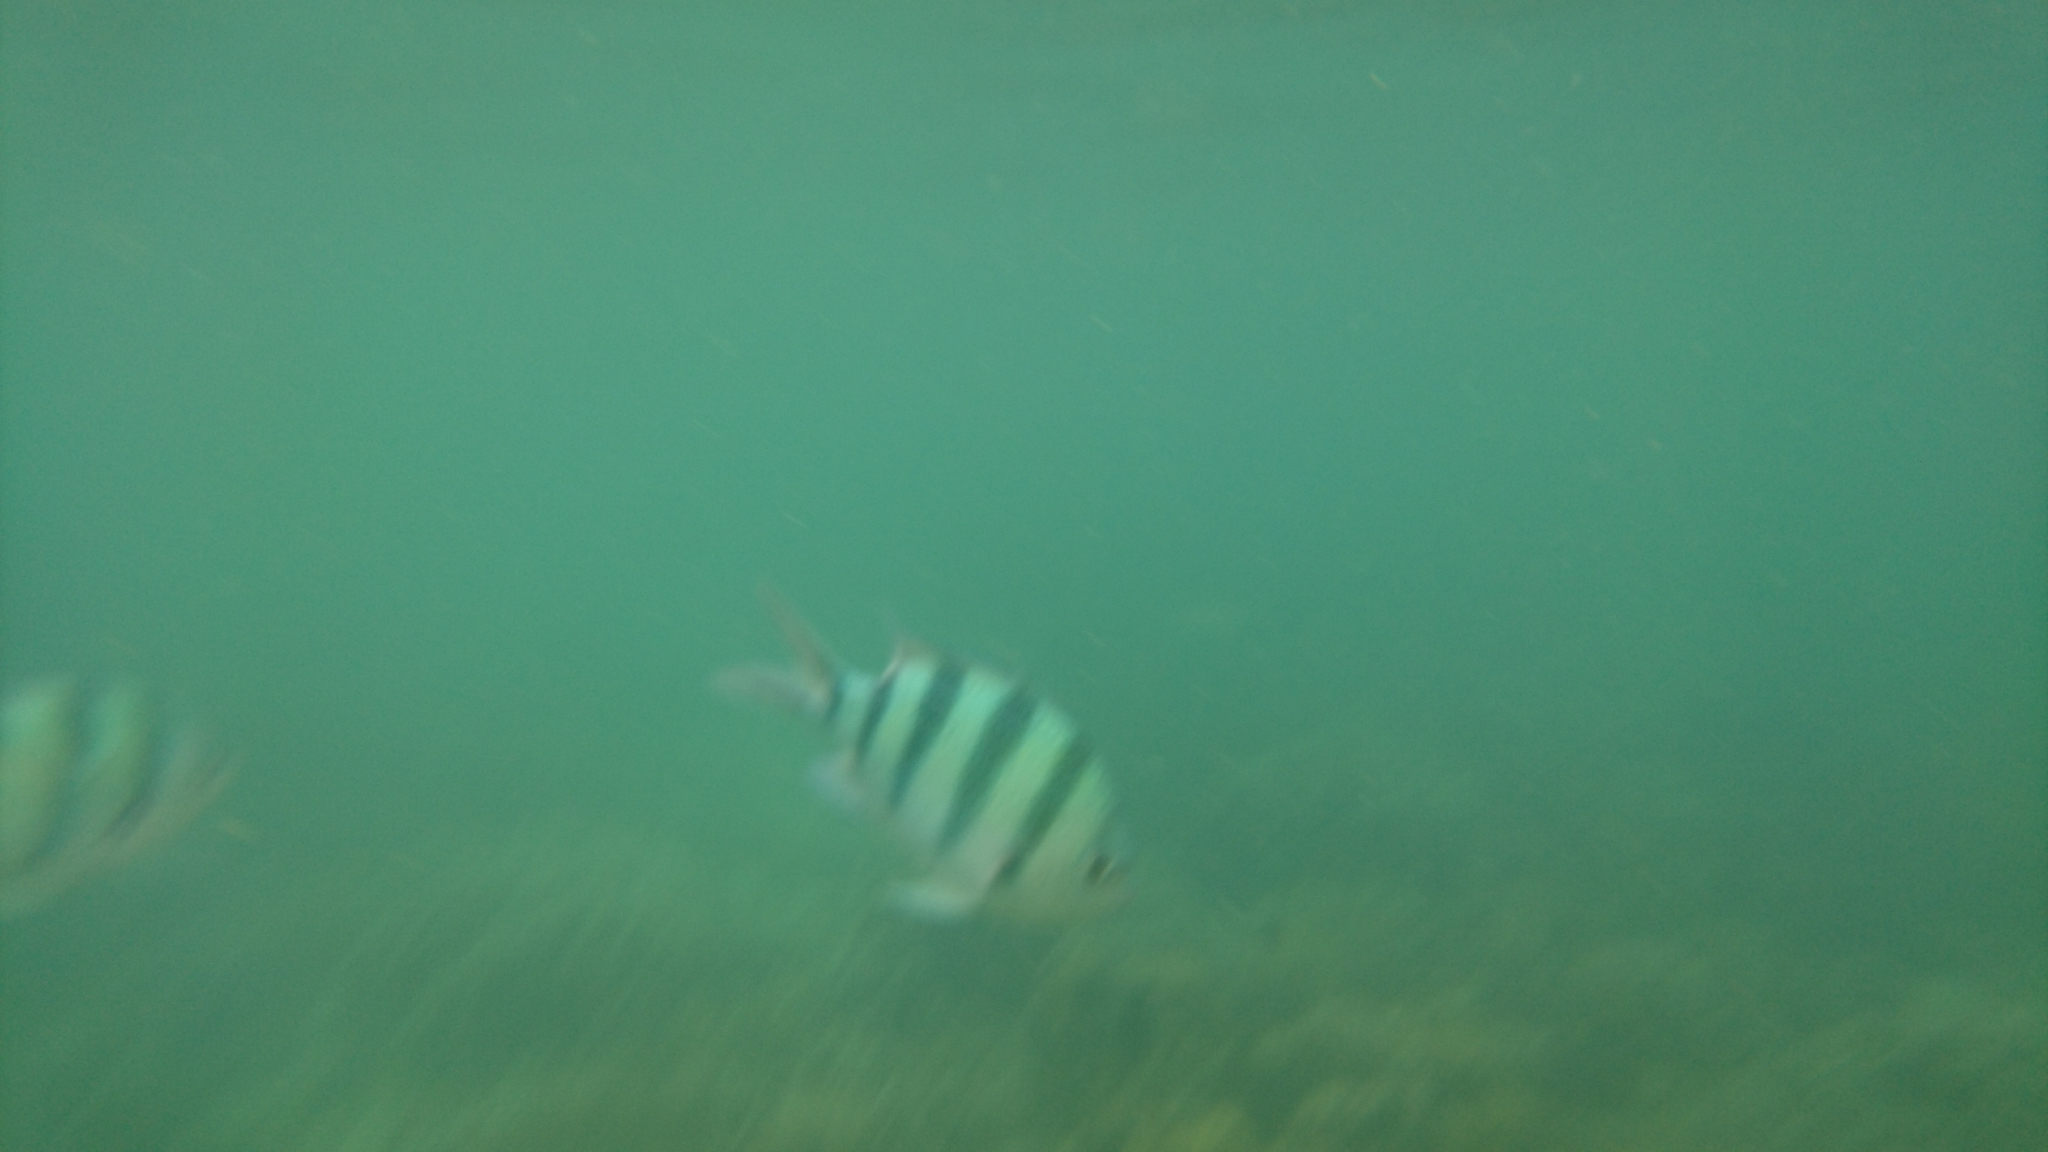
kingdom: Animalia
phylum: Chordata
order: Perciformes
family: Pomacentridae
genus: Abudefduf
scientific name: Abudefduf sexfasciatus
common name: Scissortail sergeant
